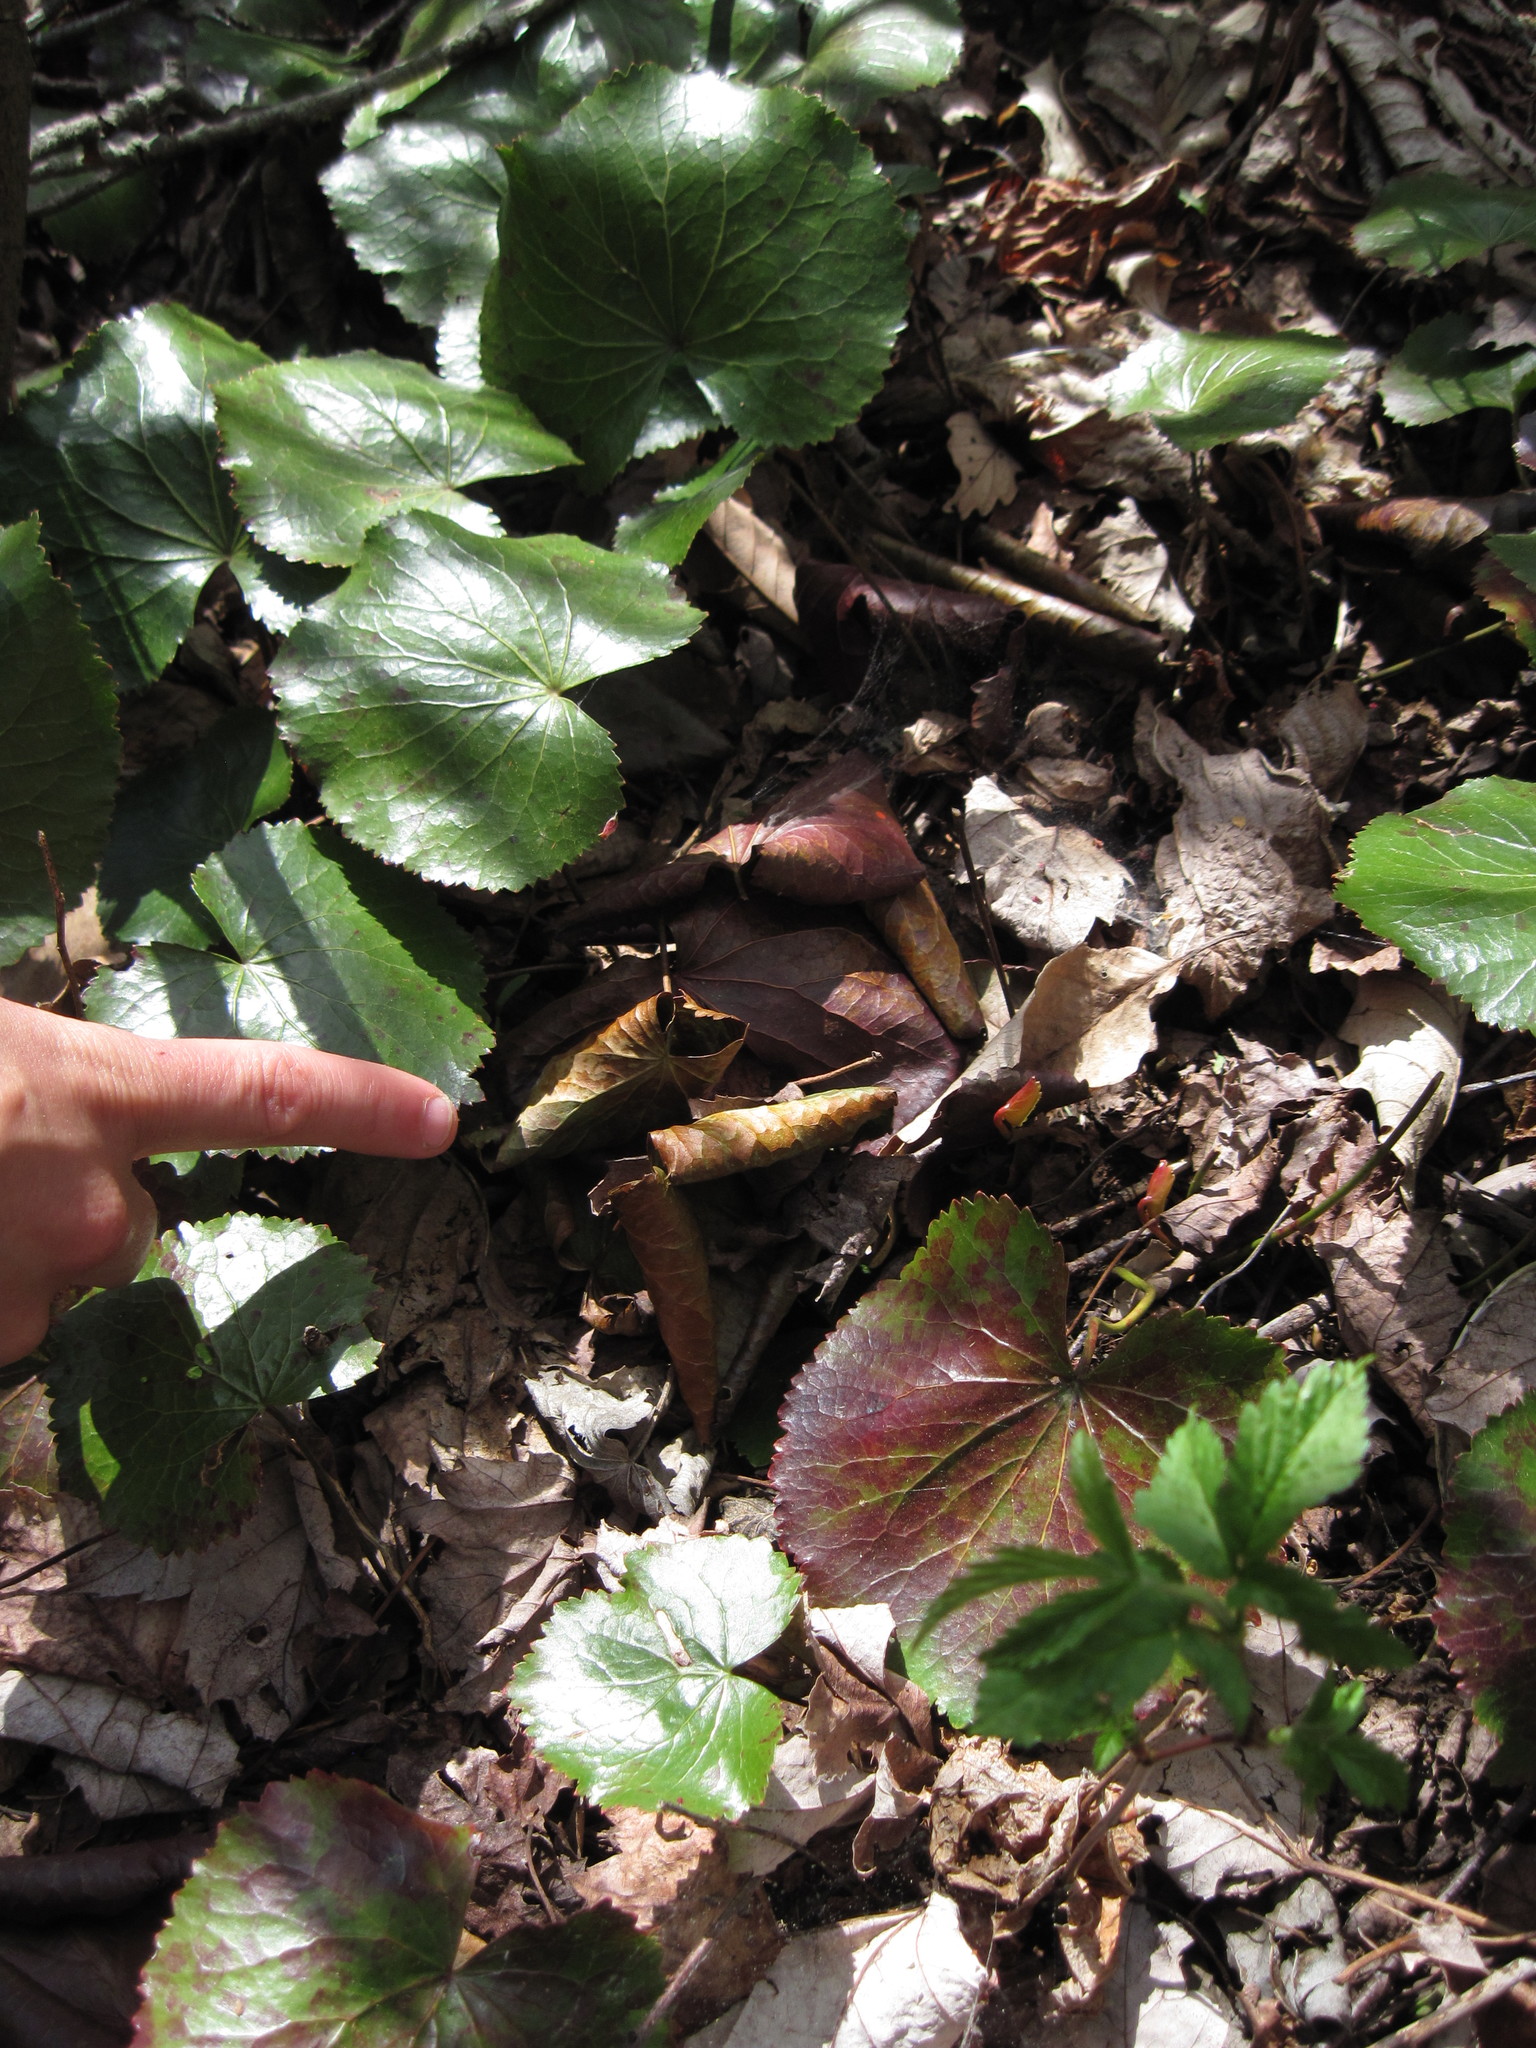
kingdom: Plantae
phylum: Tracheophyta
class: Magnoliopsida
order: Ericales
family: Diapensiaceae
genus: Galax
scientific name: Galax urceolata
